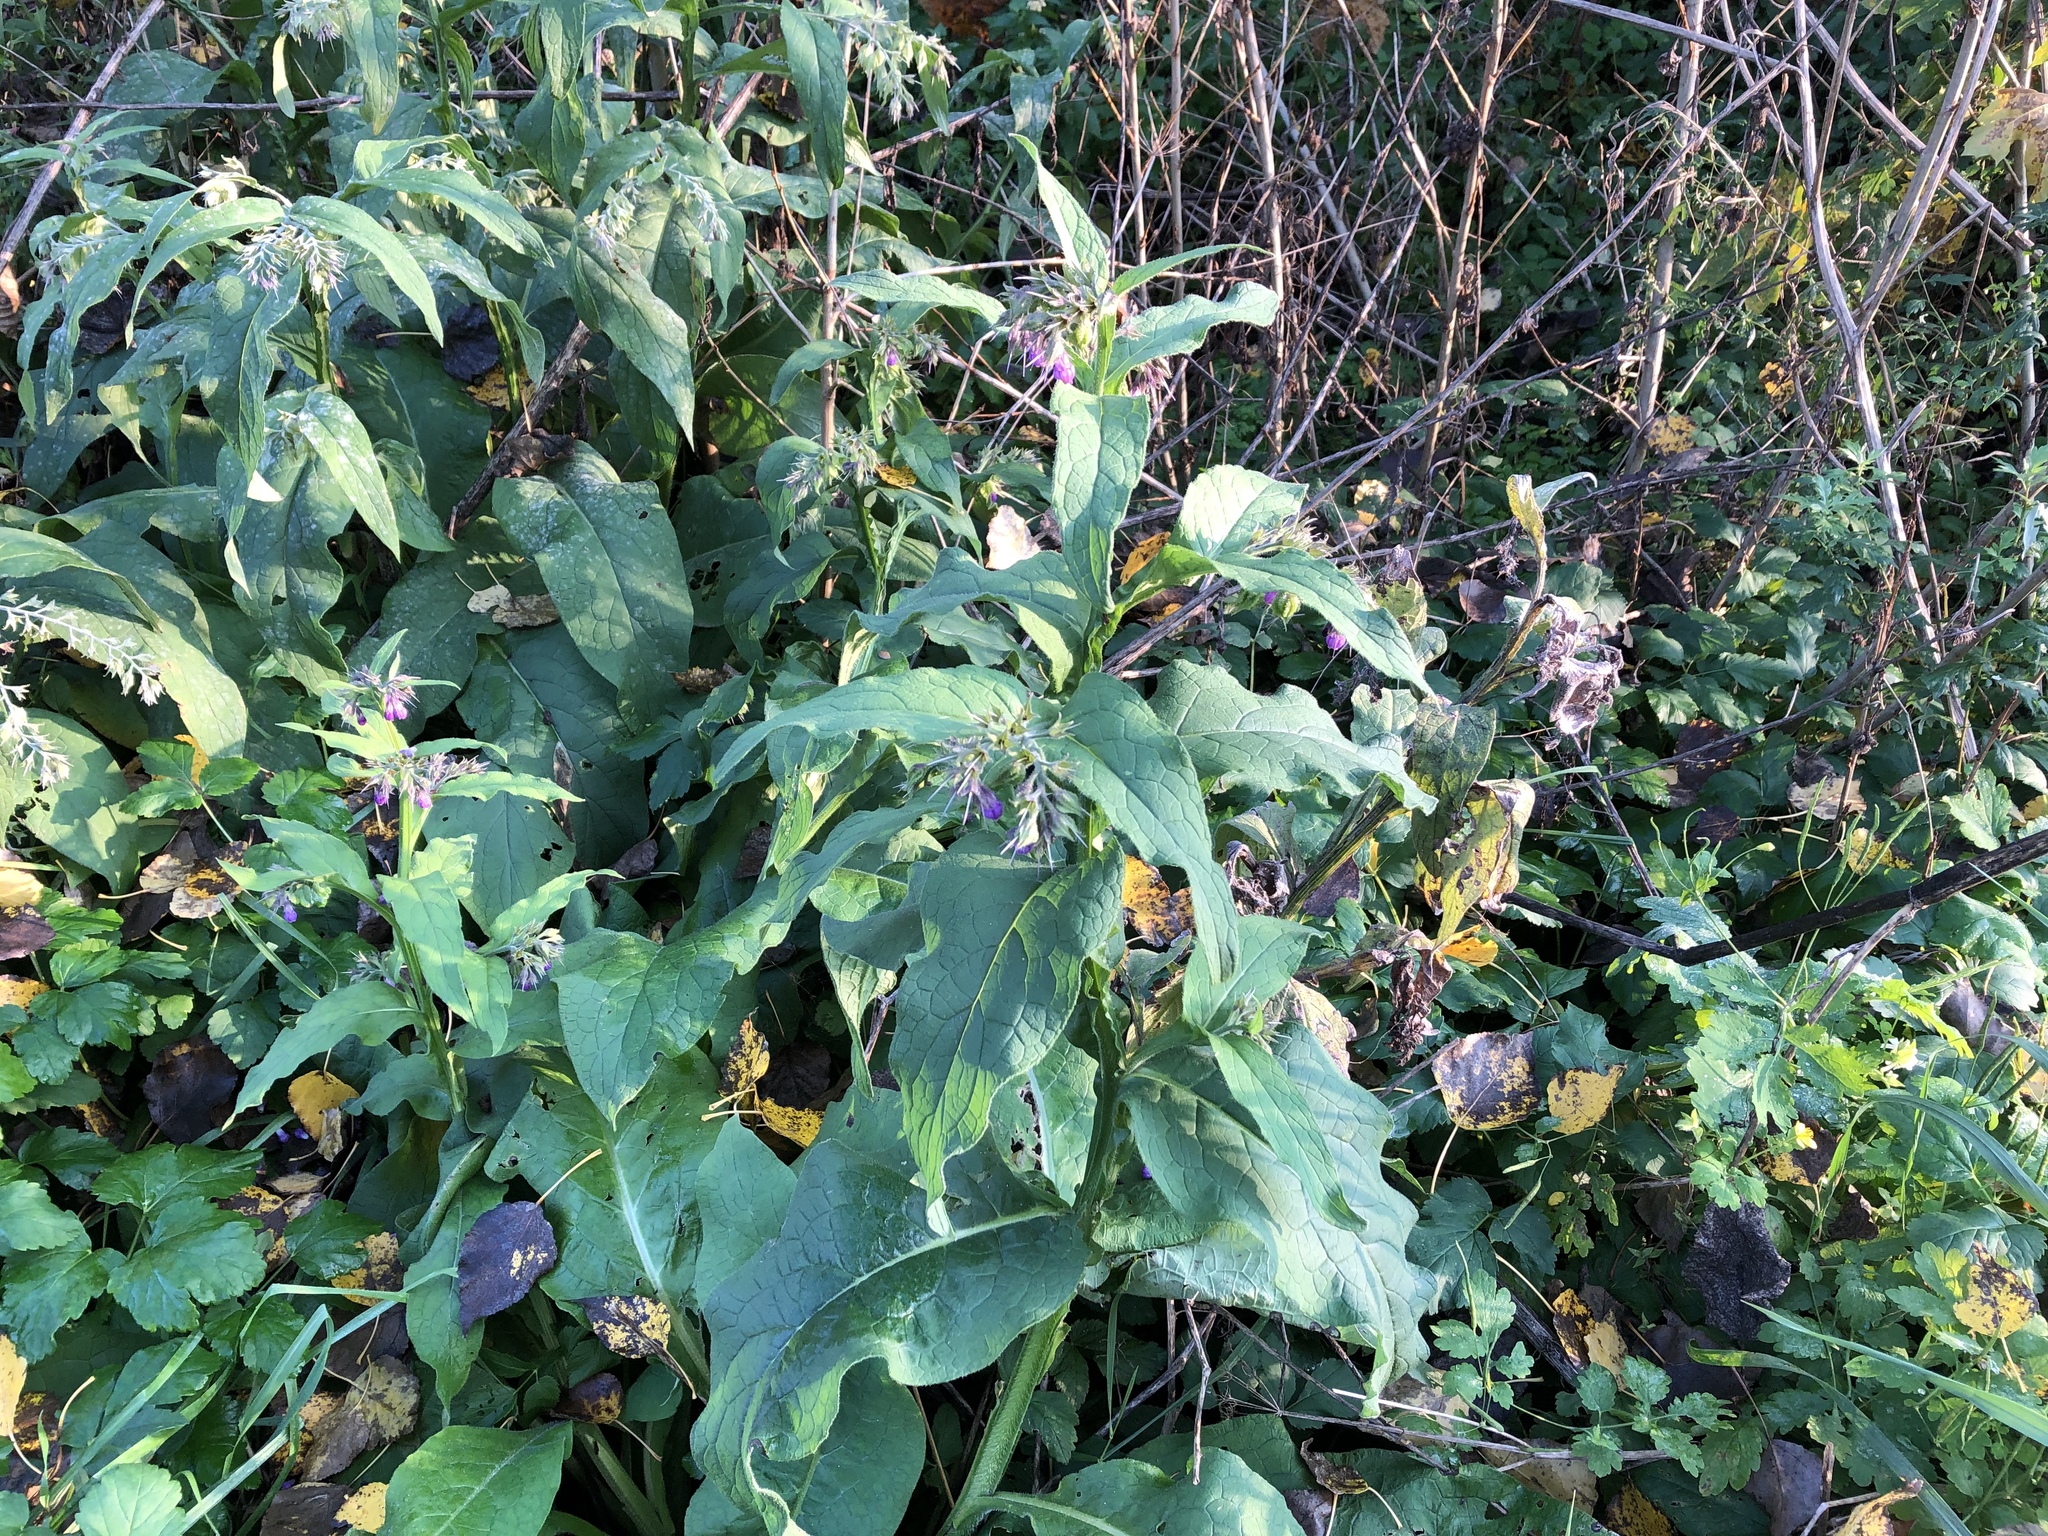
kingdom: Plantae
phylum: Tracheophyta
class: Magnoliopsida
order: Boraginales
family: Boraginaceae
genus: Symphytum
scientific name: Symphytum officinale
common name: Common comfrey
